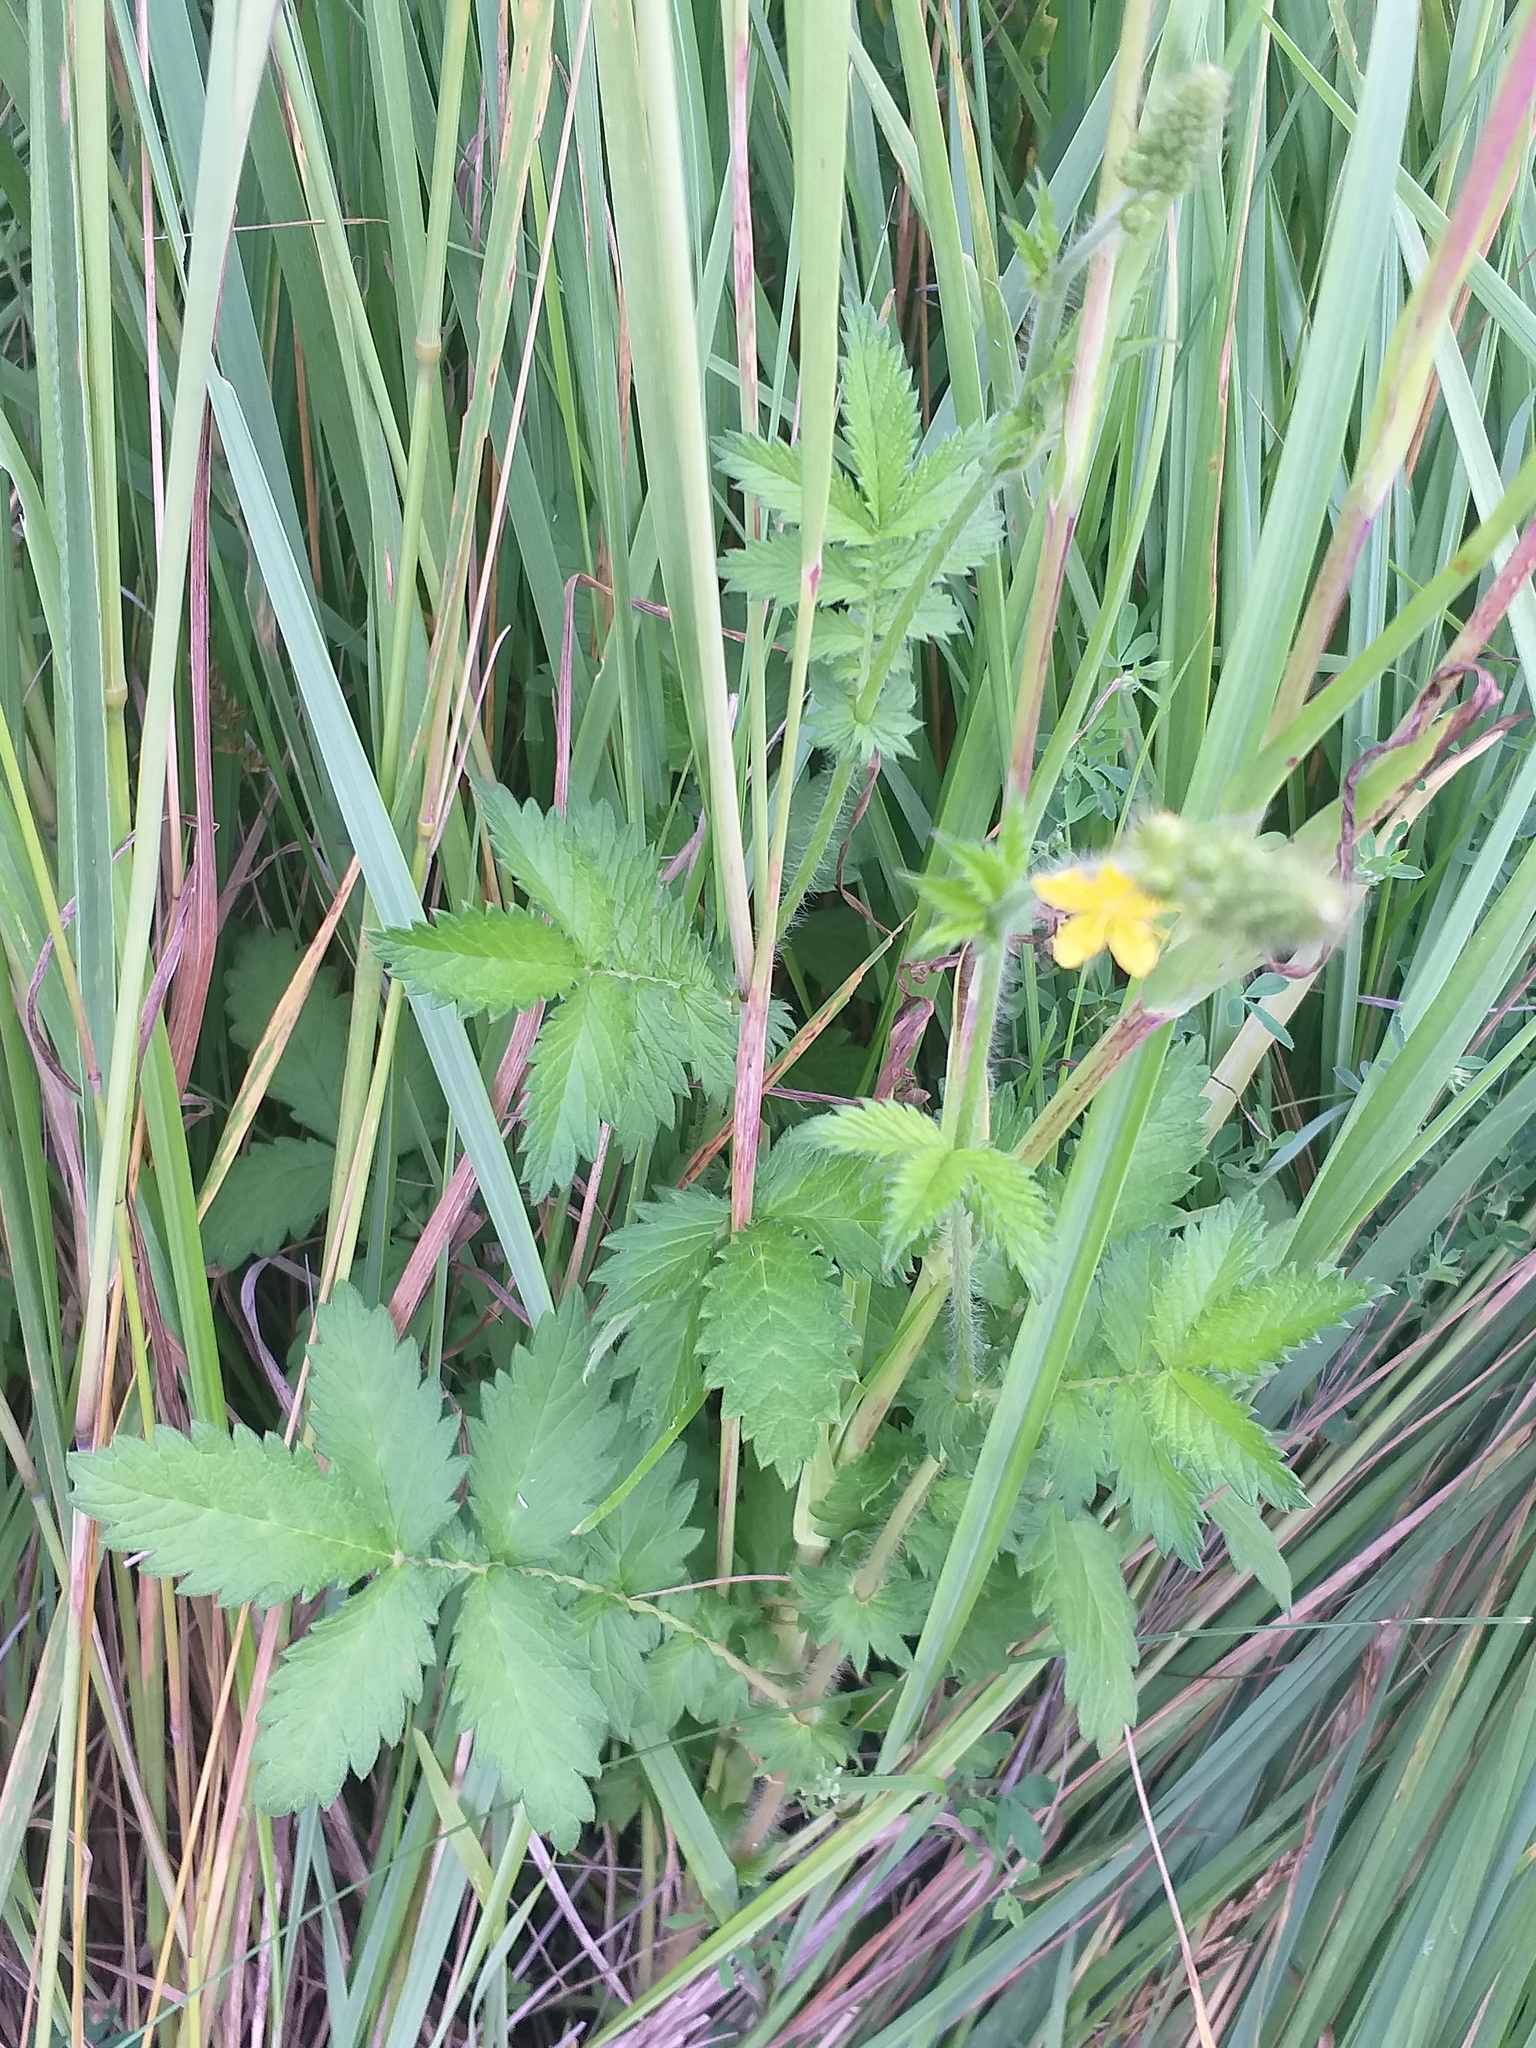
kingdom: Plantae
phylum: Tracheophyta
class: Magnoliopsida
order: Rosales
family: Rosaceae
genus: Agrimonia
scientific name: Agrimonia eupatoria
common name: Agrimony
